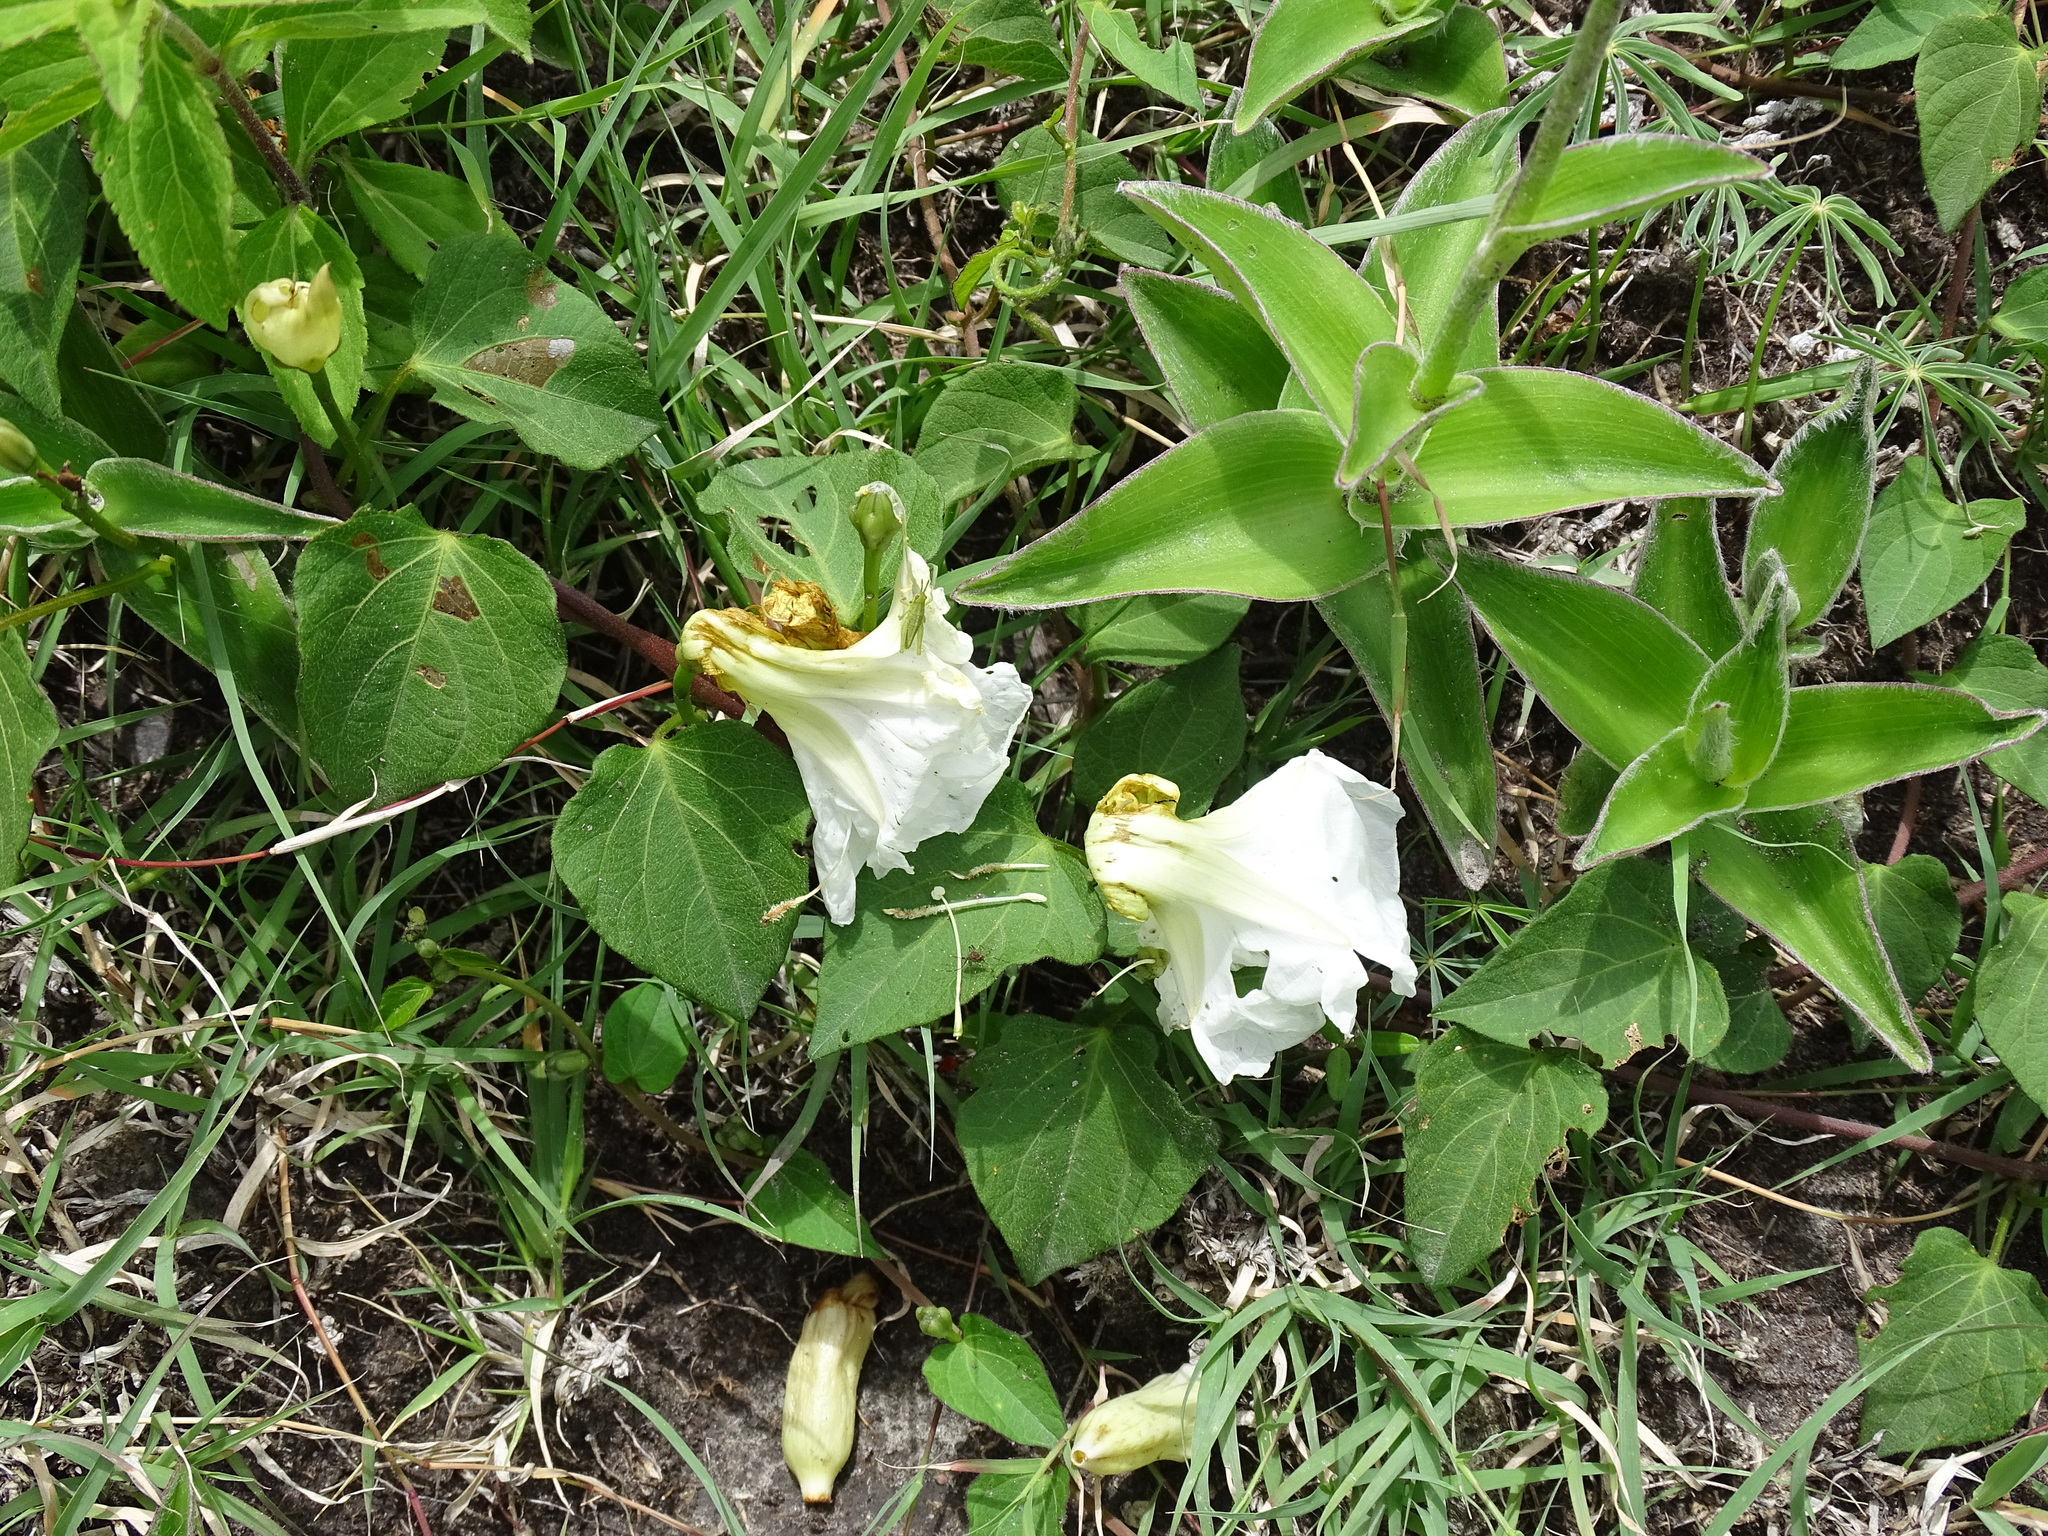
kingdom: Plantae
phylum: Tracheophyta
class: Magnoliopsida
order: Solanales
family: Convolvulaceae
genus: Ipomoea
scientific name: Ipomoea proxima
